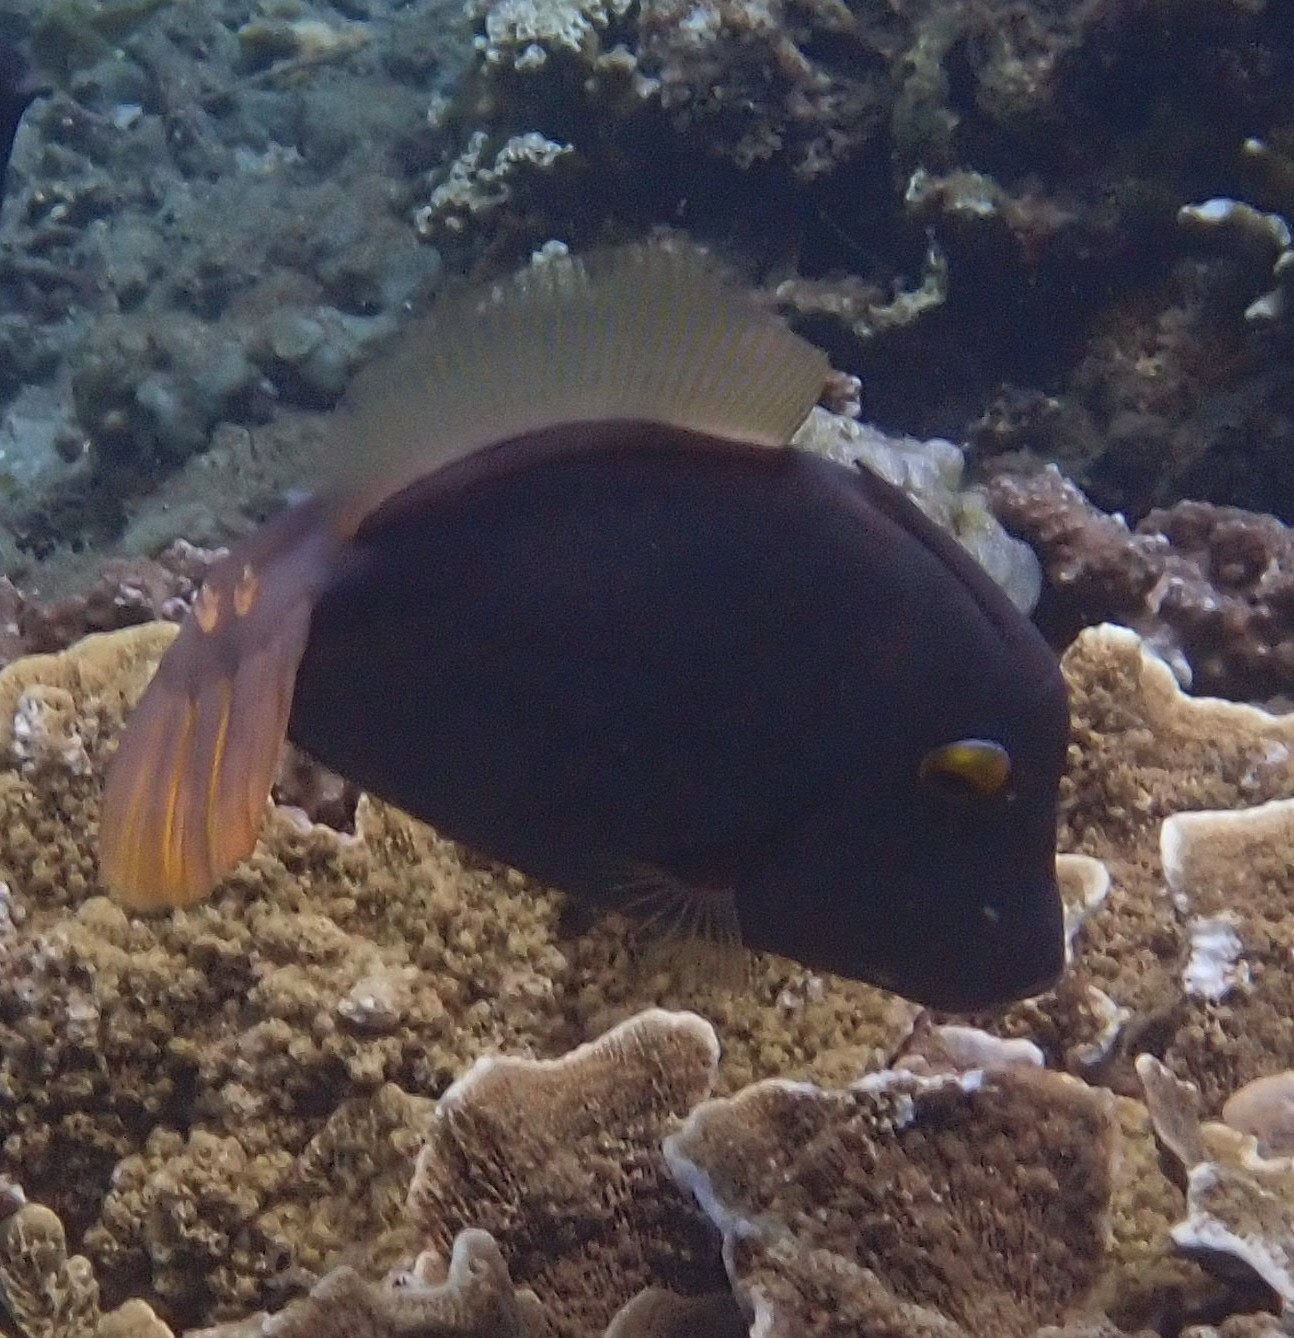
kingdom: Animalia
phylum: Chordata
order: Tetraodontiformes
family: Monacanthidae
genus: Cantherhines
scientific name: Cantherhines dumerilii
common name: Barred filefish
